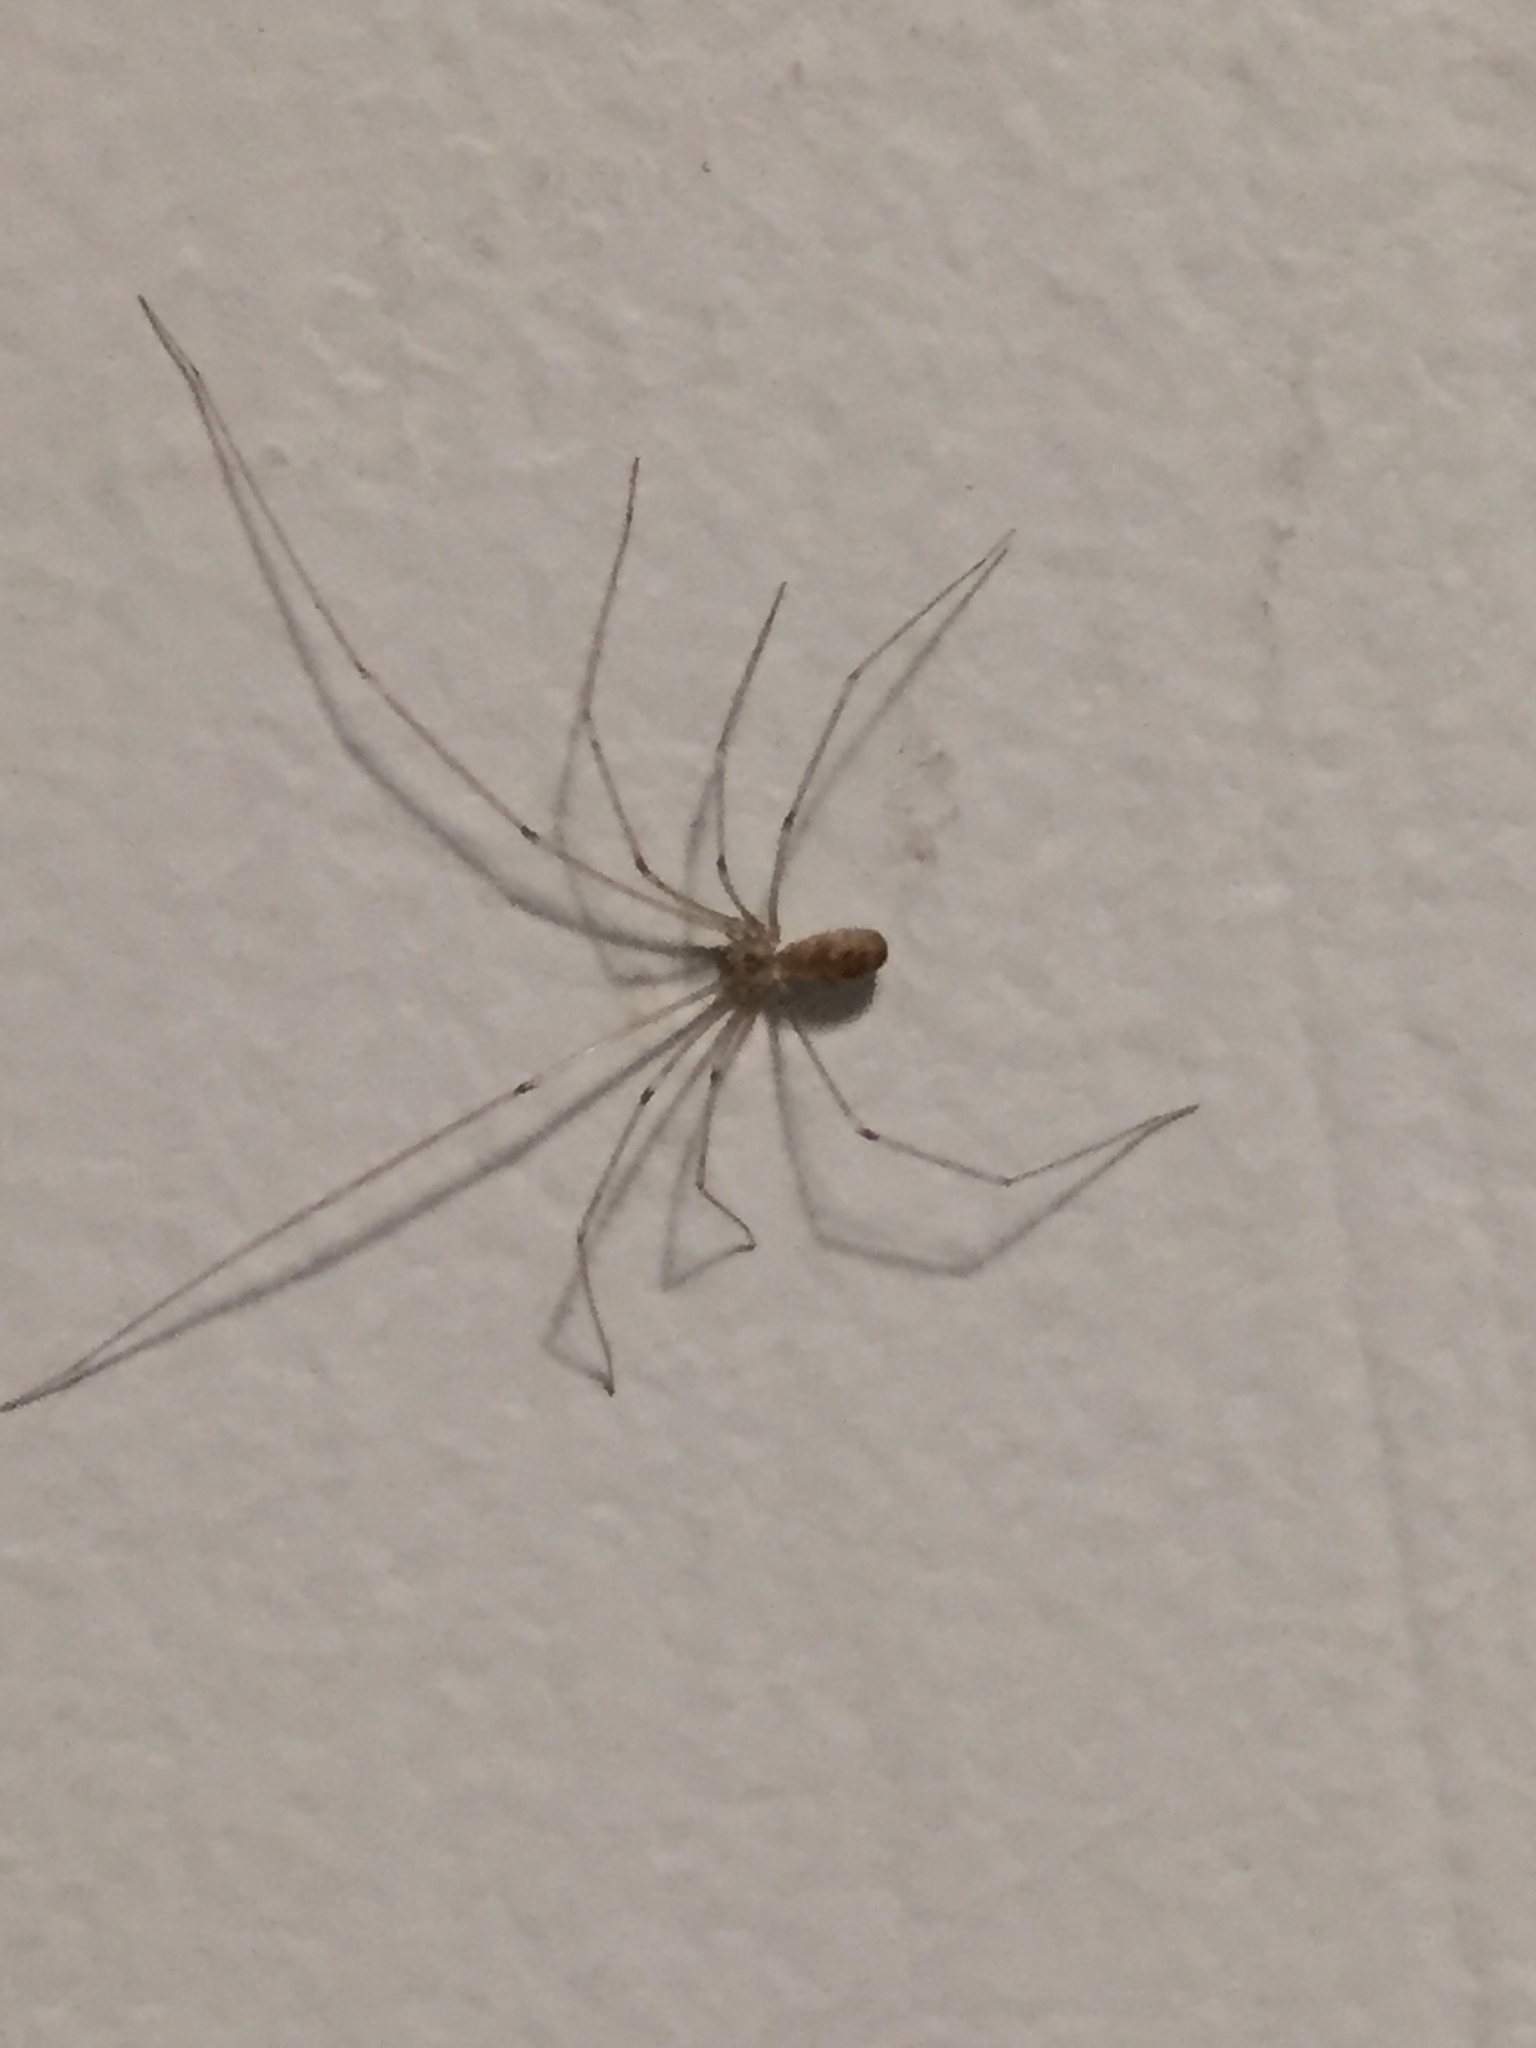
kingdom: Animalia
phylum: Arthropoda
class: Arachnida
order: Araneae
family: Pholcidae
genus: Pholcus
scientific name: Pholcus phalangioides
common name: Longbodied cellar spider
